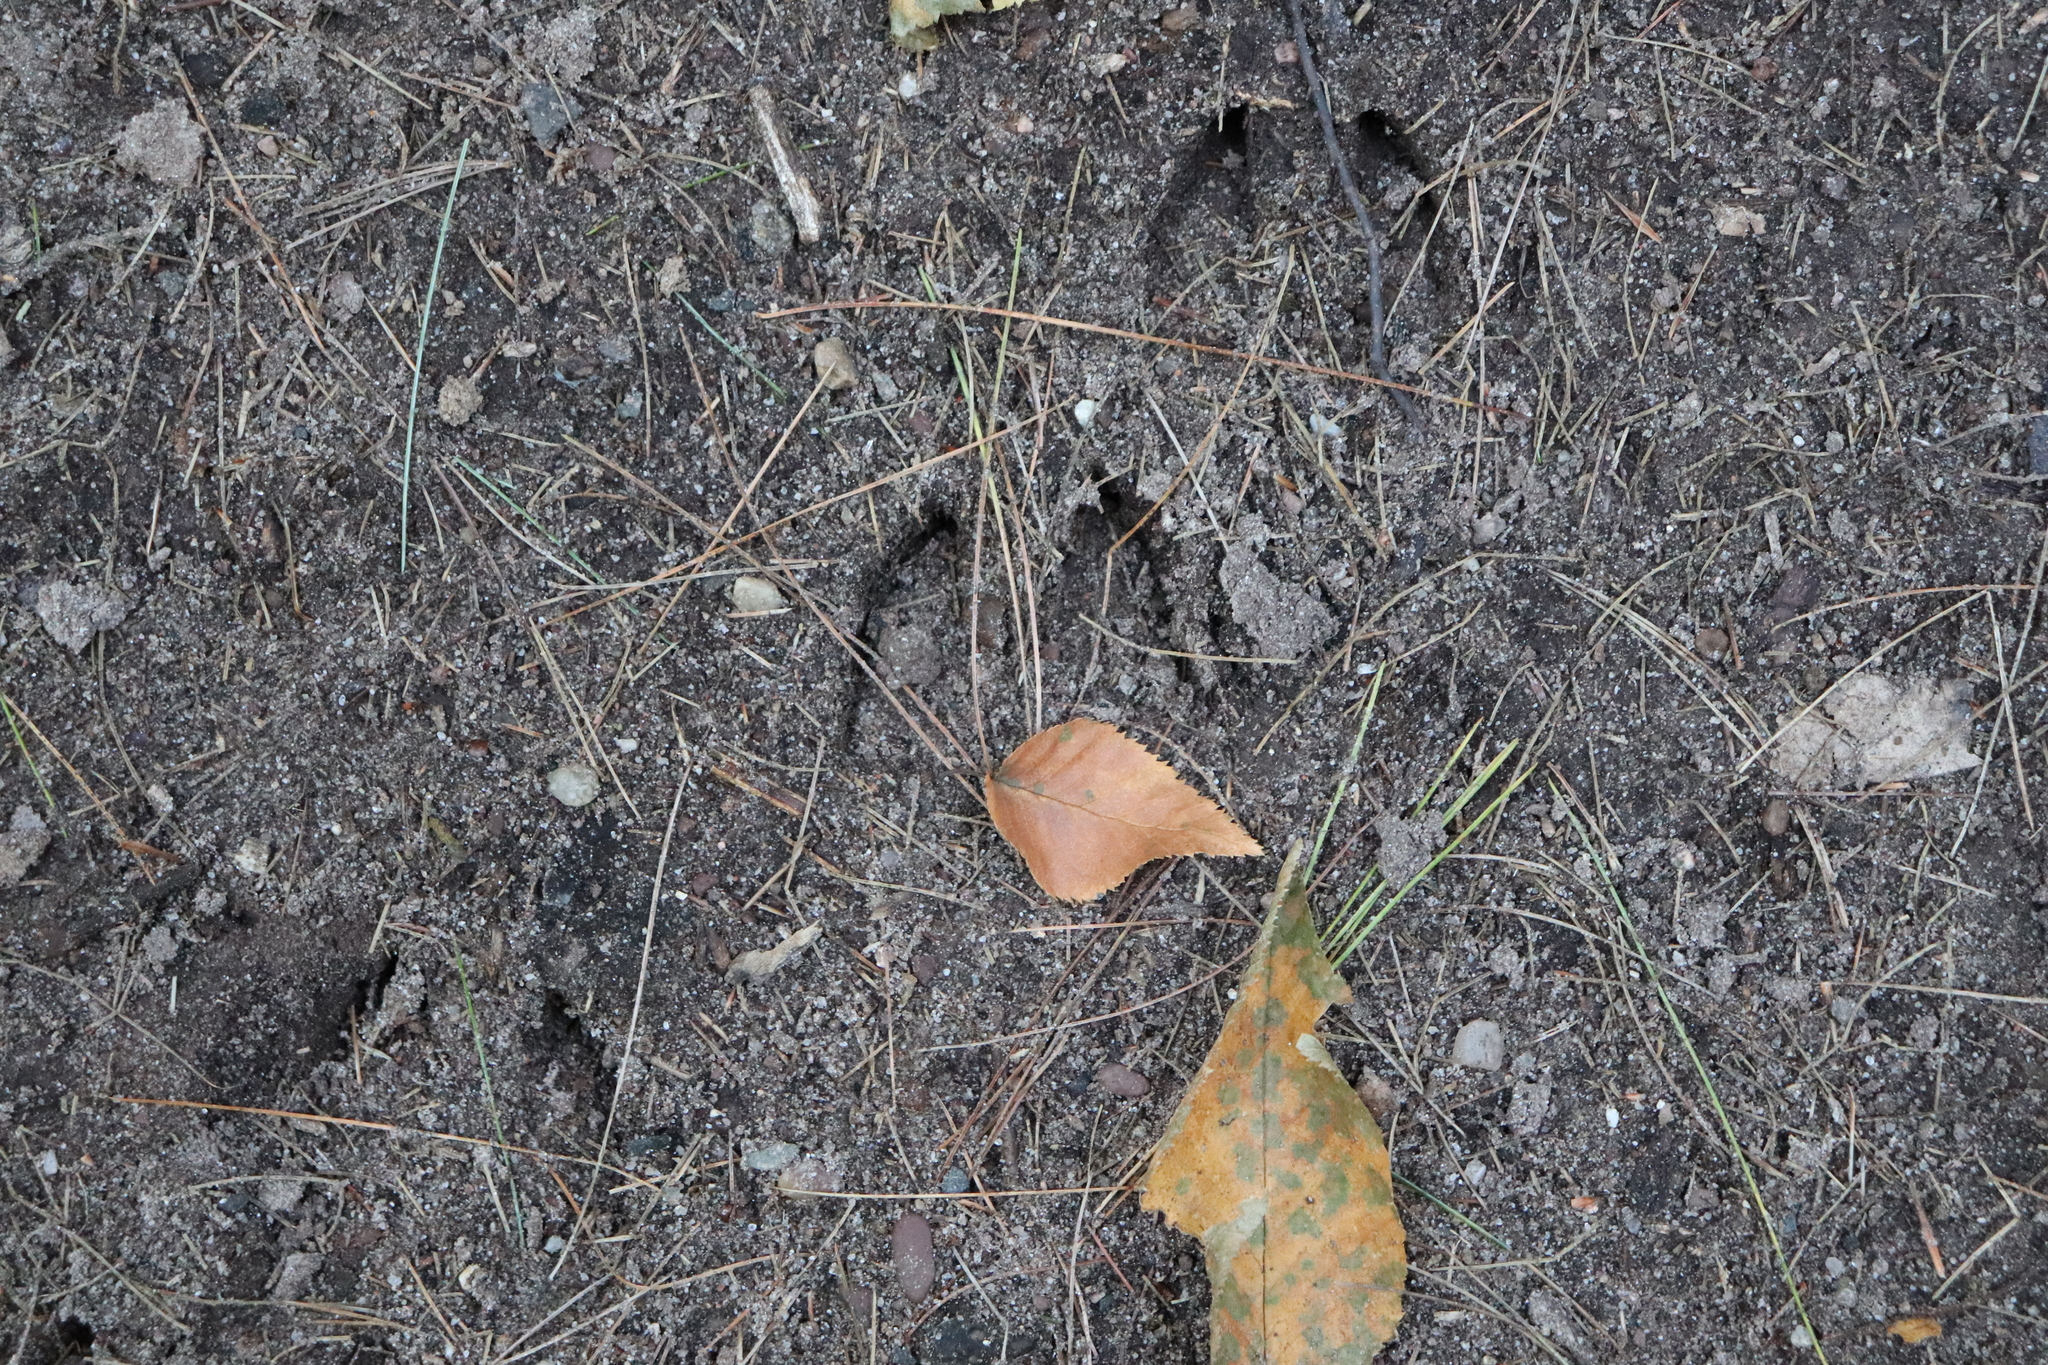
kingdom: Animalia
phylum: Chordata
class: Mammalia
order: Artiodactyla
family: Cervidae
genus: Odocoileus
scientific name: Odocoileus virginianus
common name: White-tailed deer
